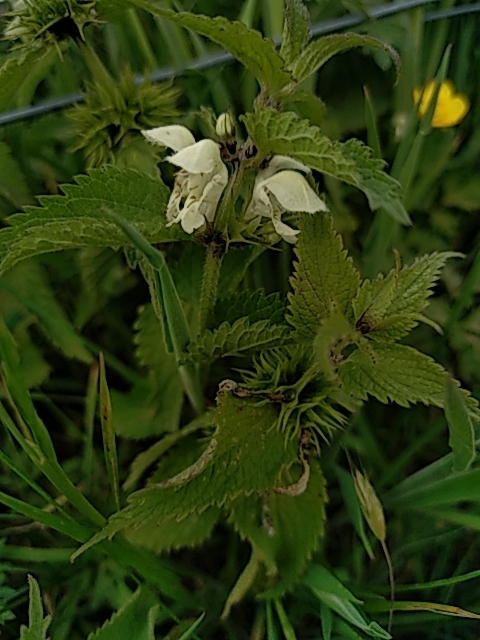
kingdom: Plantae
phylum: Tracheophyta
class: Magnoliopsida
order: Lamiales
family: Lamiaceae
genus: Lamium
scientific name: Lamium album
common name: White dead-nettle
